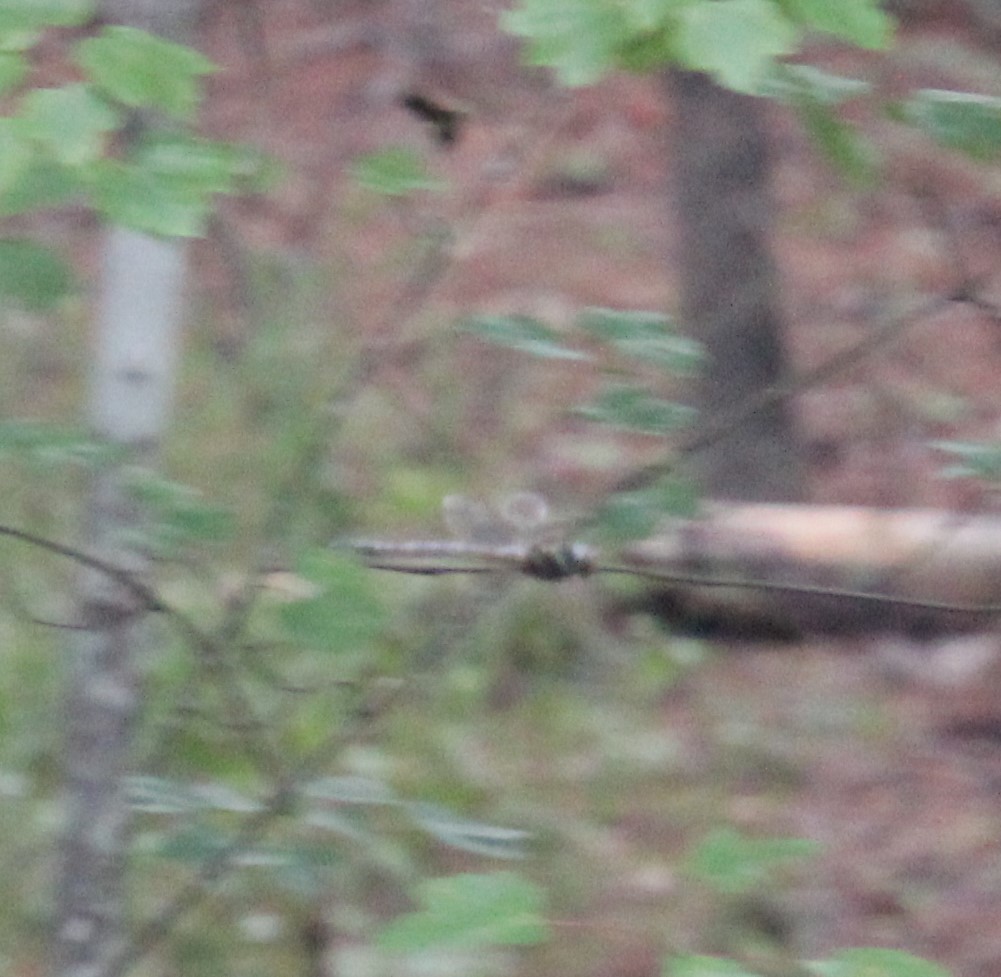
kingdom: Animalia
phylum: Arthropoda
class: Insecta
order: Odonata
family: Aeshnidae
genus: Epiaeschna
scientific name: Epiaeschna heros
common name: Swamp darner
